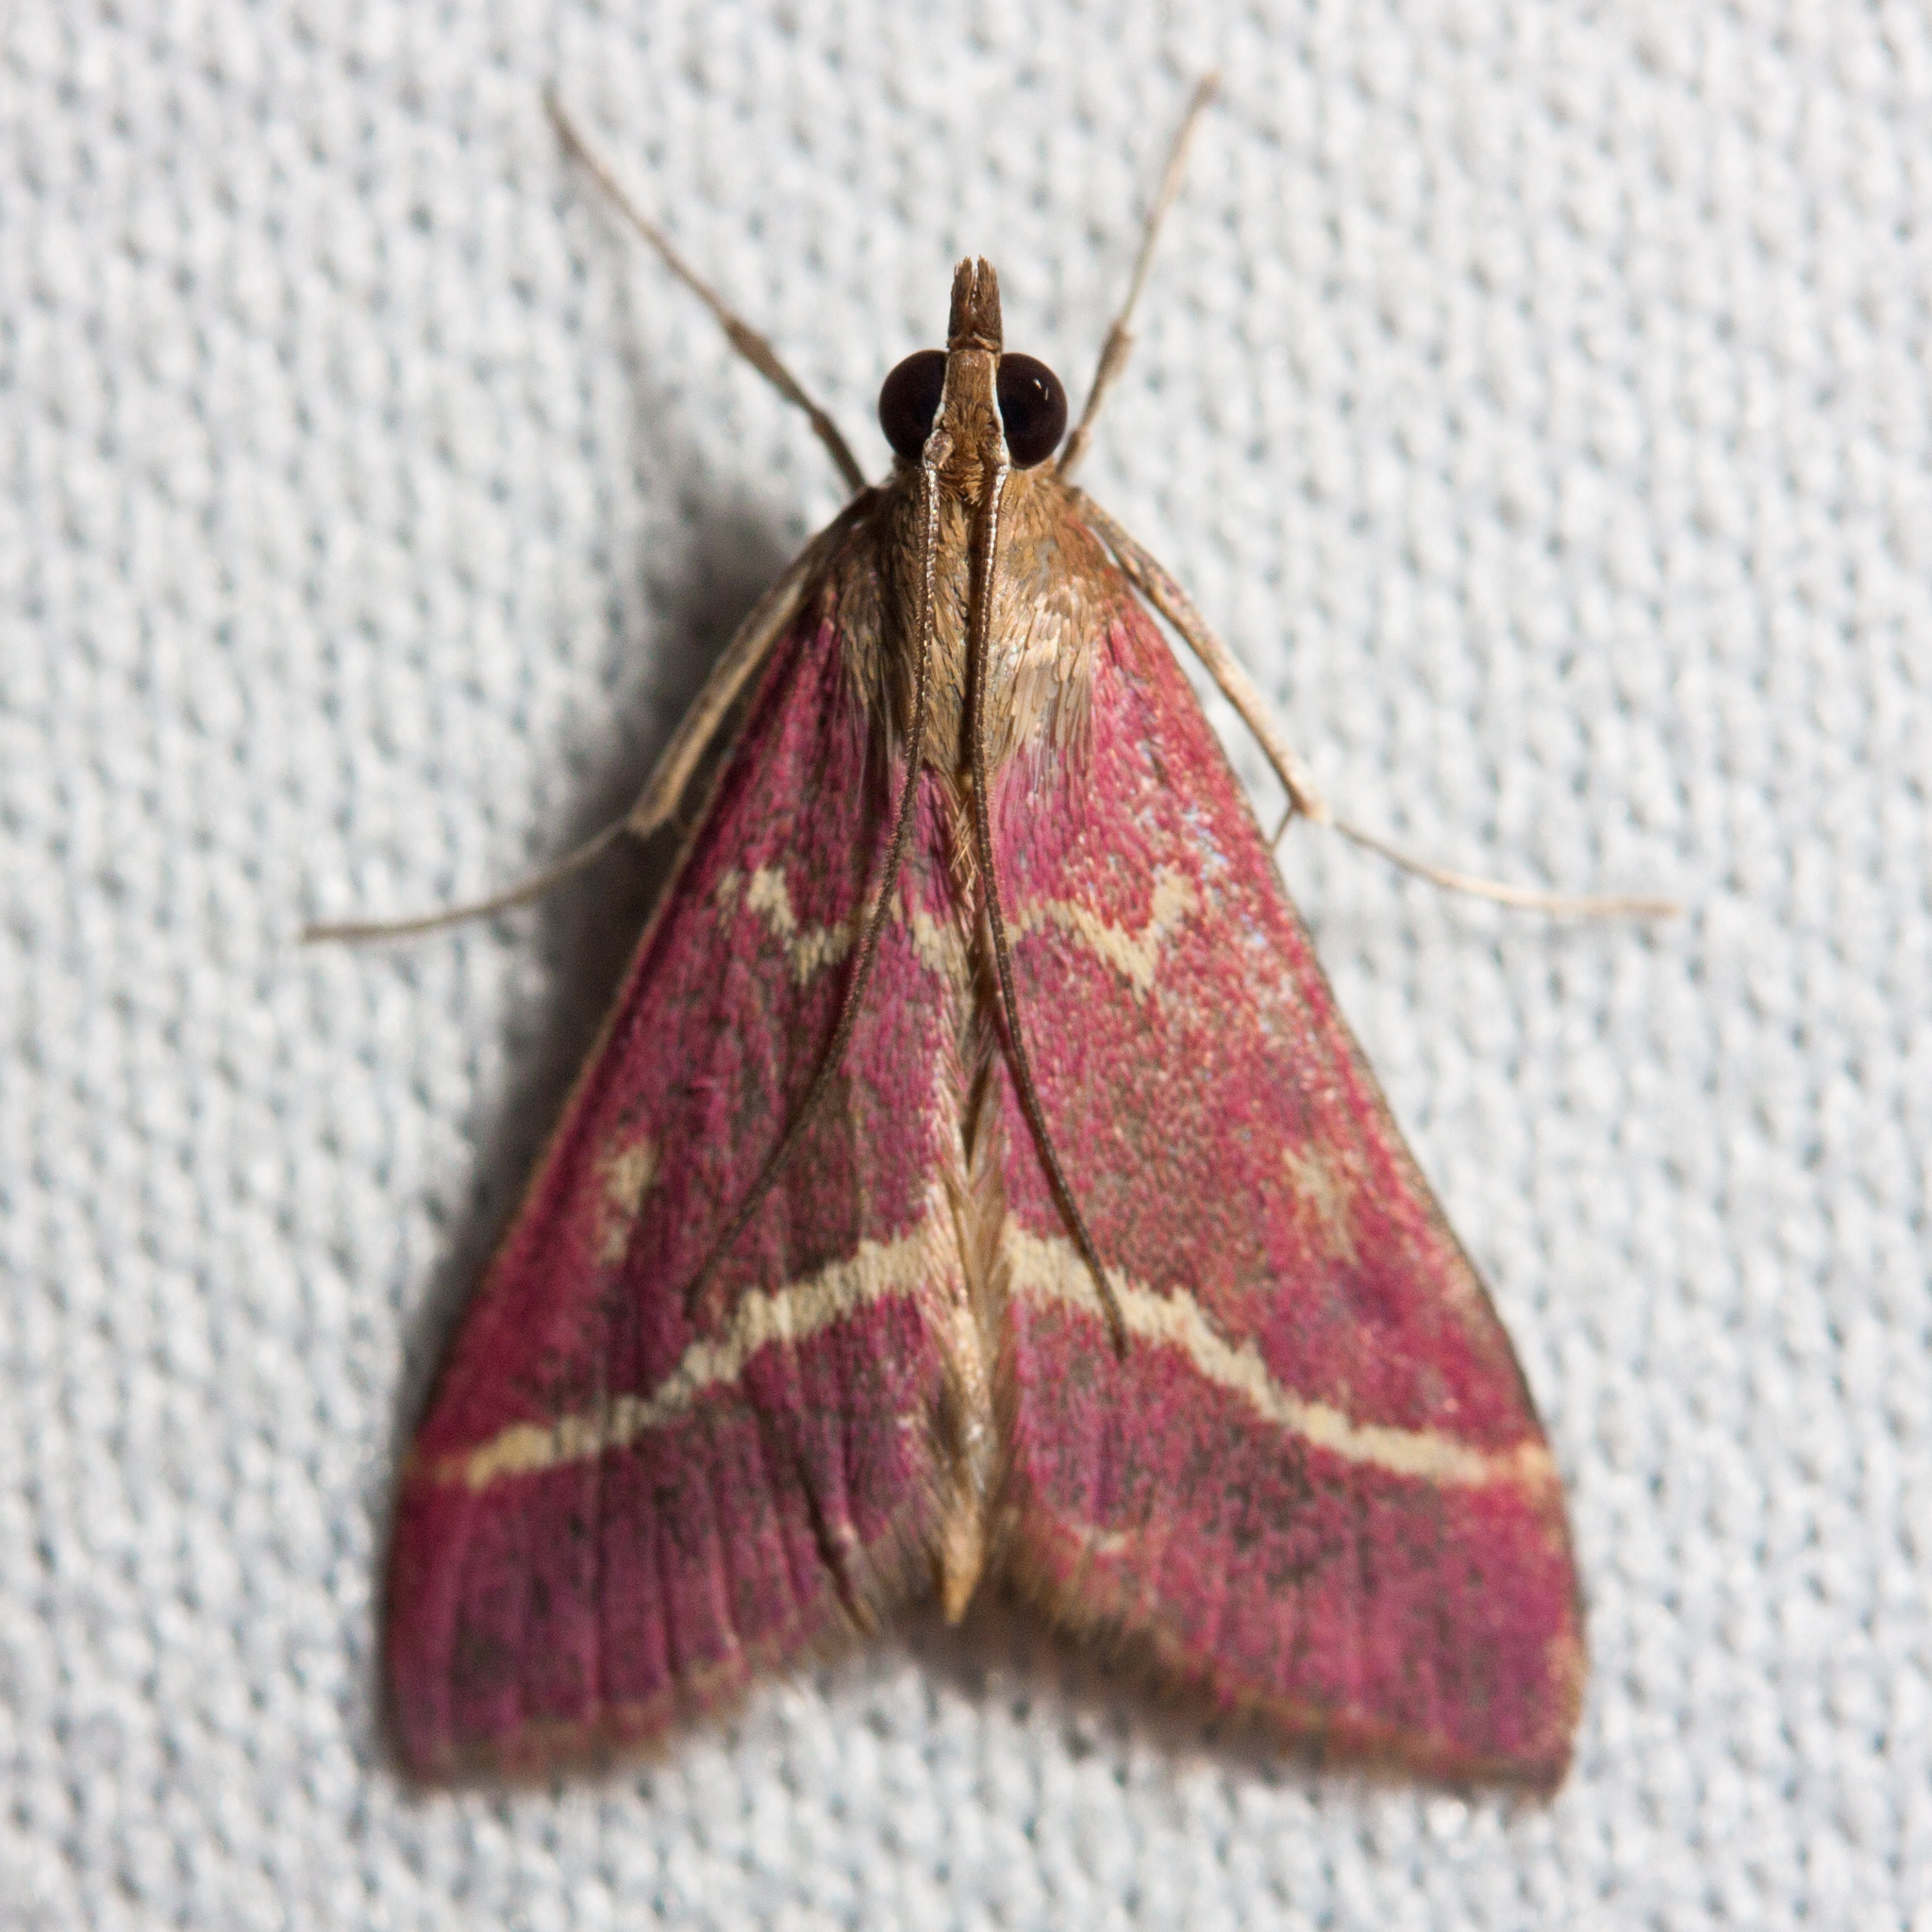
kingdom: Animalia
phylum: Arthropoda
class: Insecta
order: Lepidoptera
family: Crambidae
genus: Pyrausta
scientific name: Pyrausta volupialis
